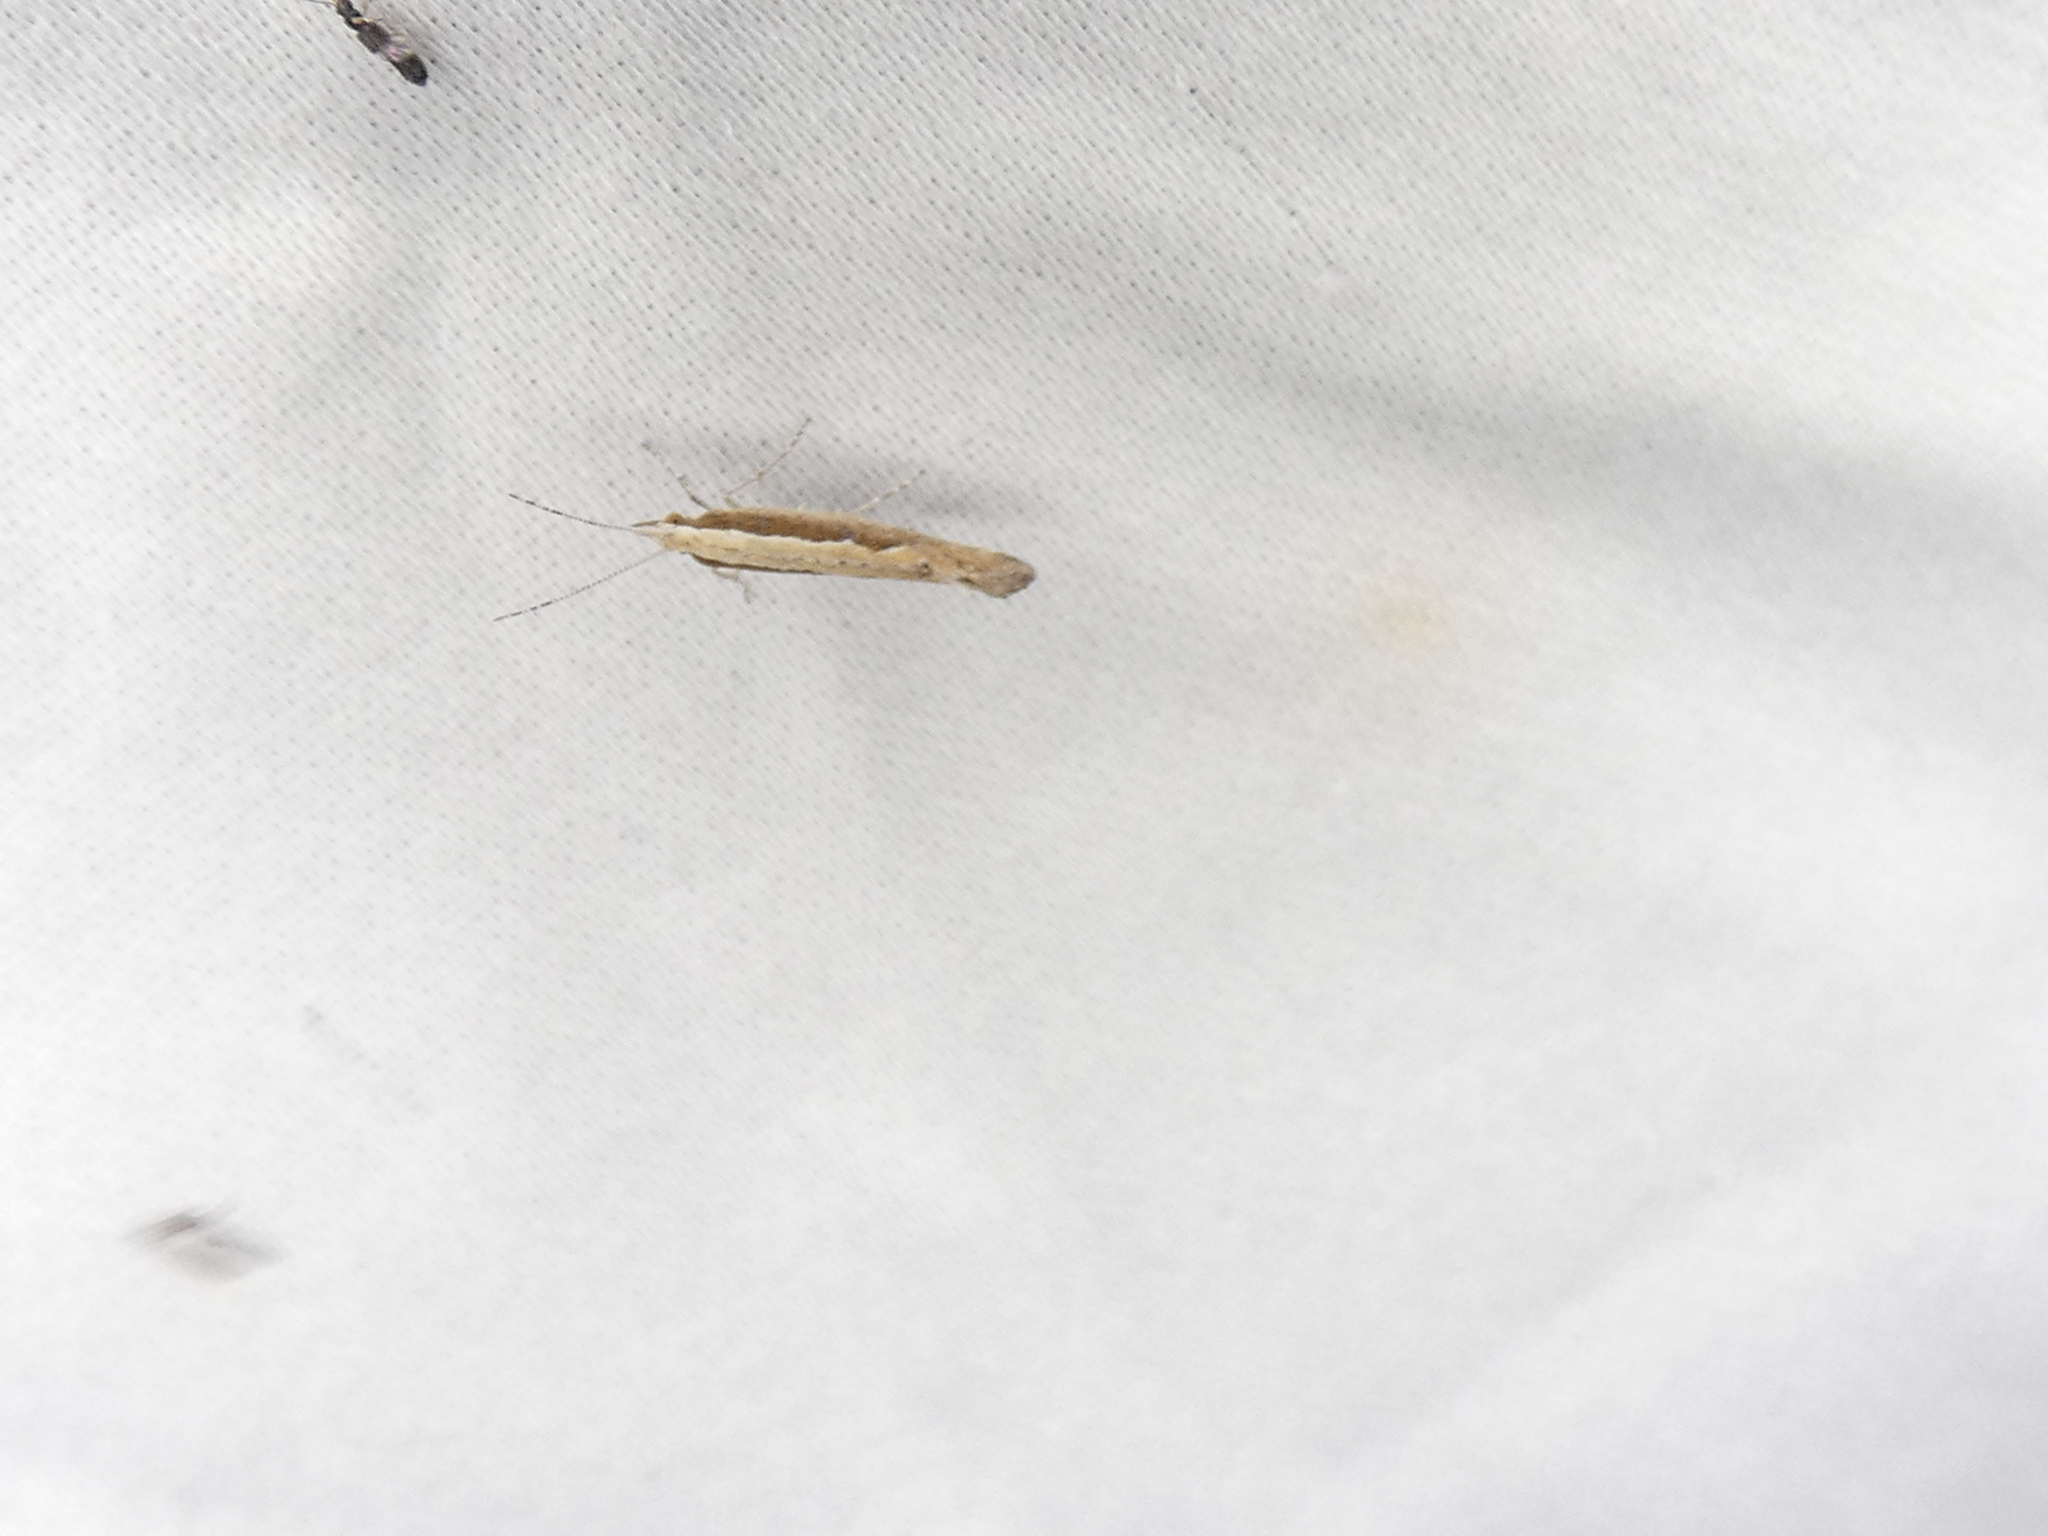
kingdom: Animalia
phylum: Arthropoda
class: Insecta
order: Lepidoptera
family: Plutellidae
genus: Plutella
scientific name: Plutella xylostella
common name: Diamond-back moth
